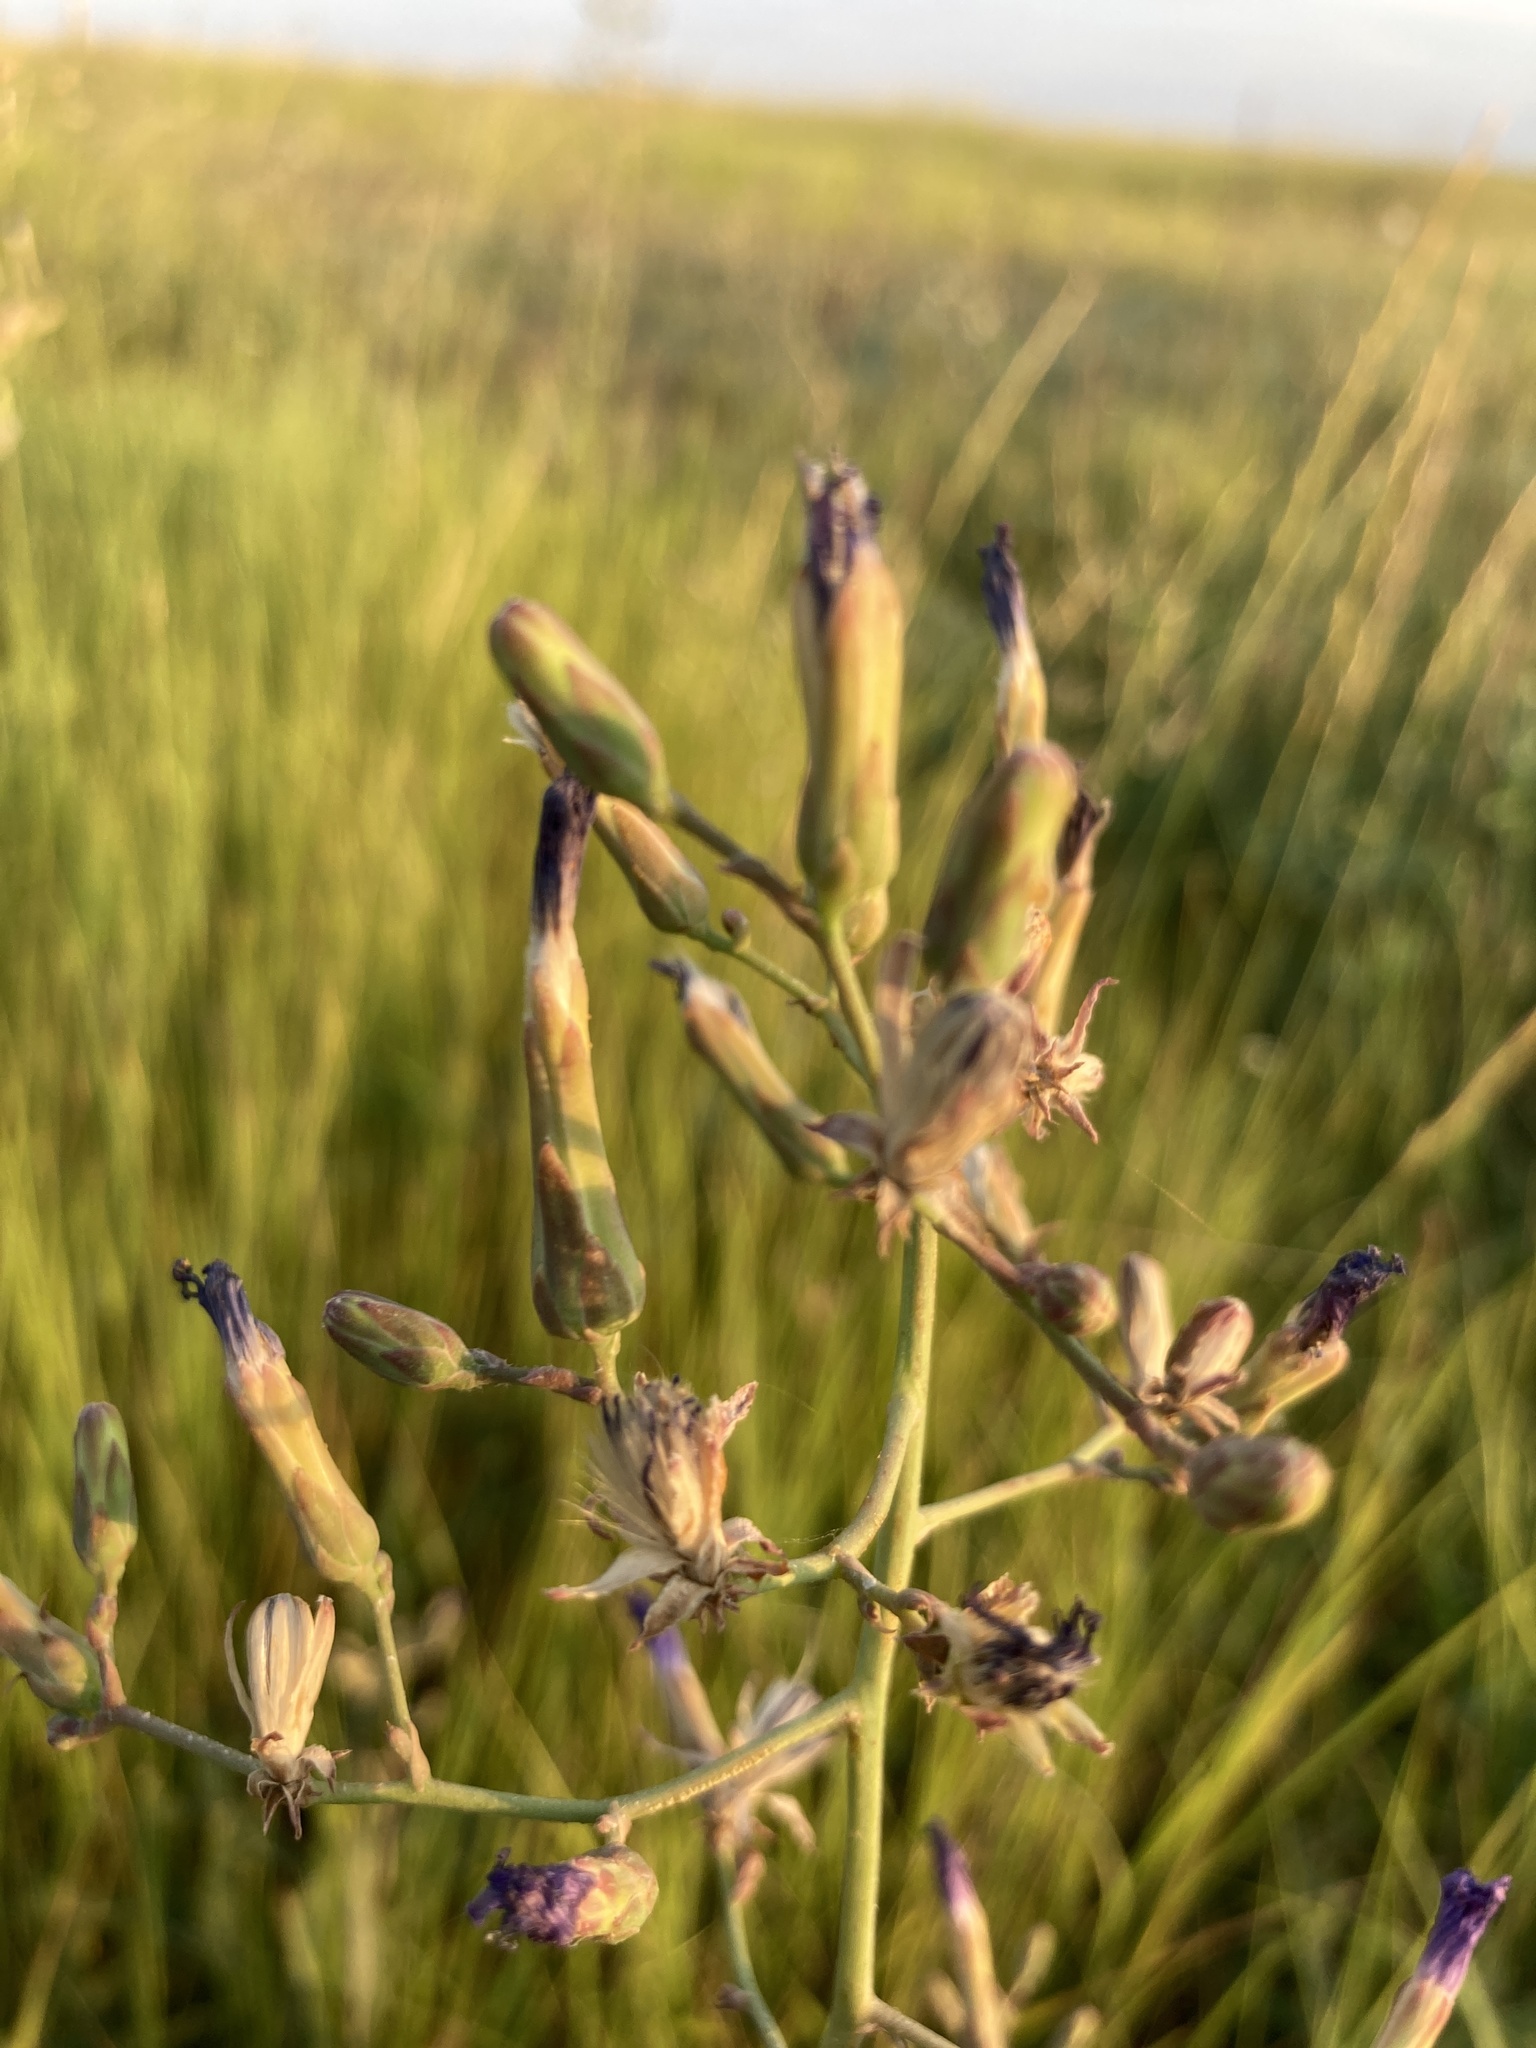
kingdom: Plantae
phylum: Tracheophyta
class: Magnoliopsida
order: Asterales
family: Asteraceae
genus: Lactuca
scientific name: Lactuca tatarica
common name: Blue lettuce
